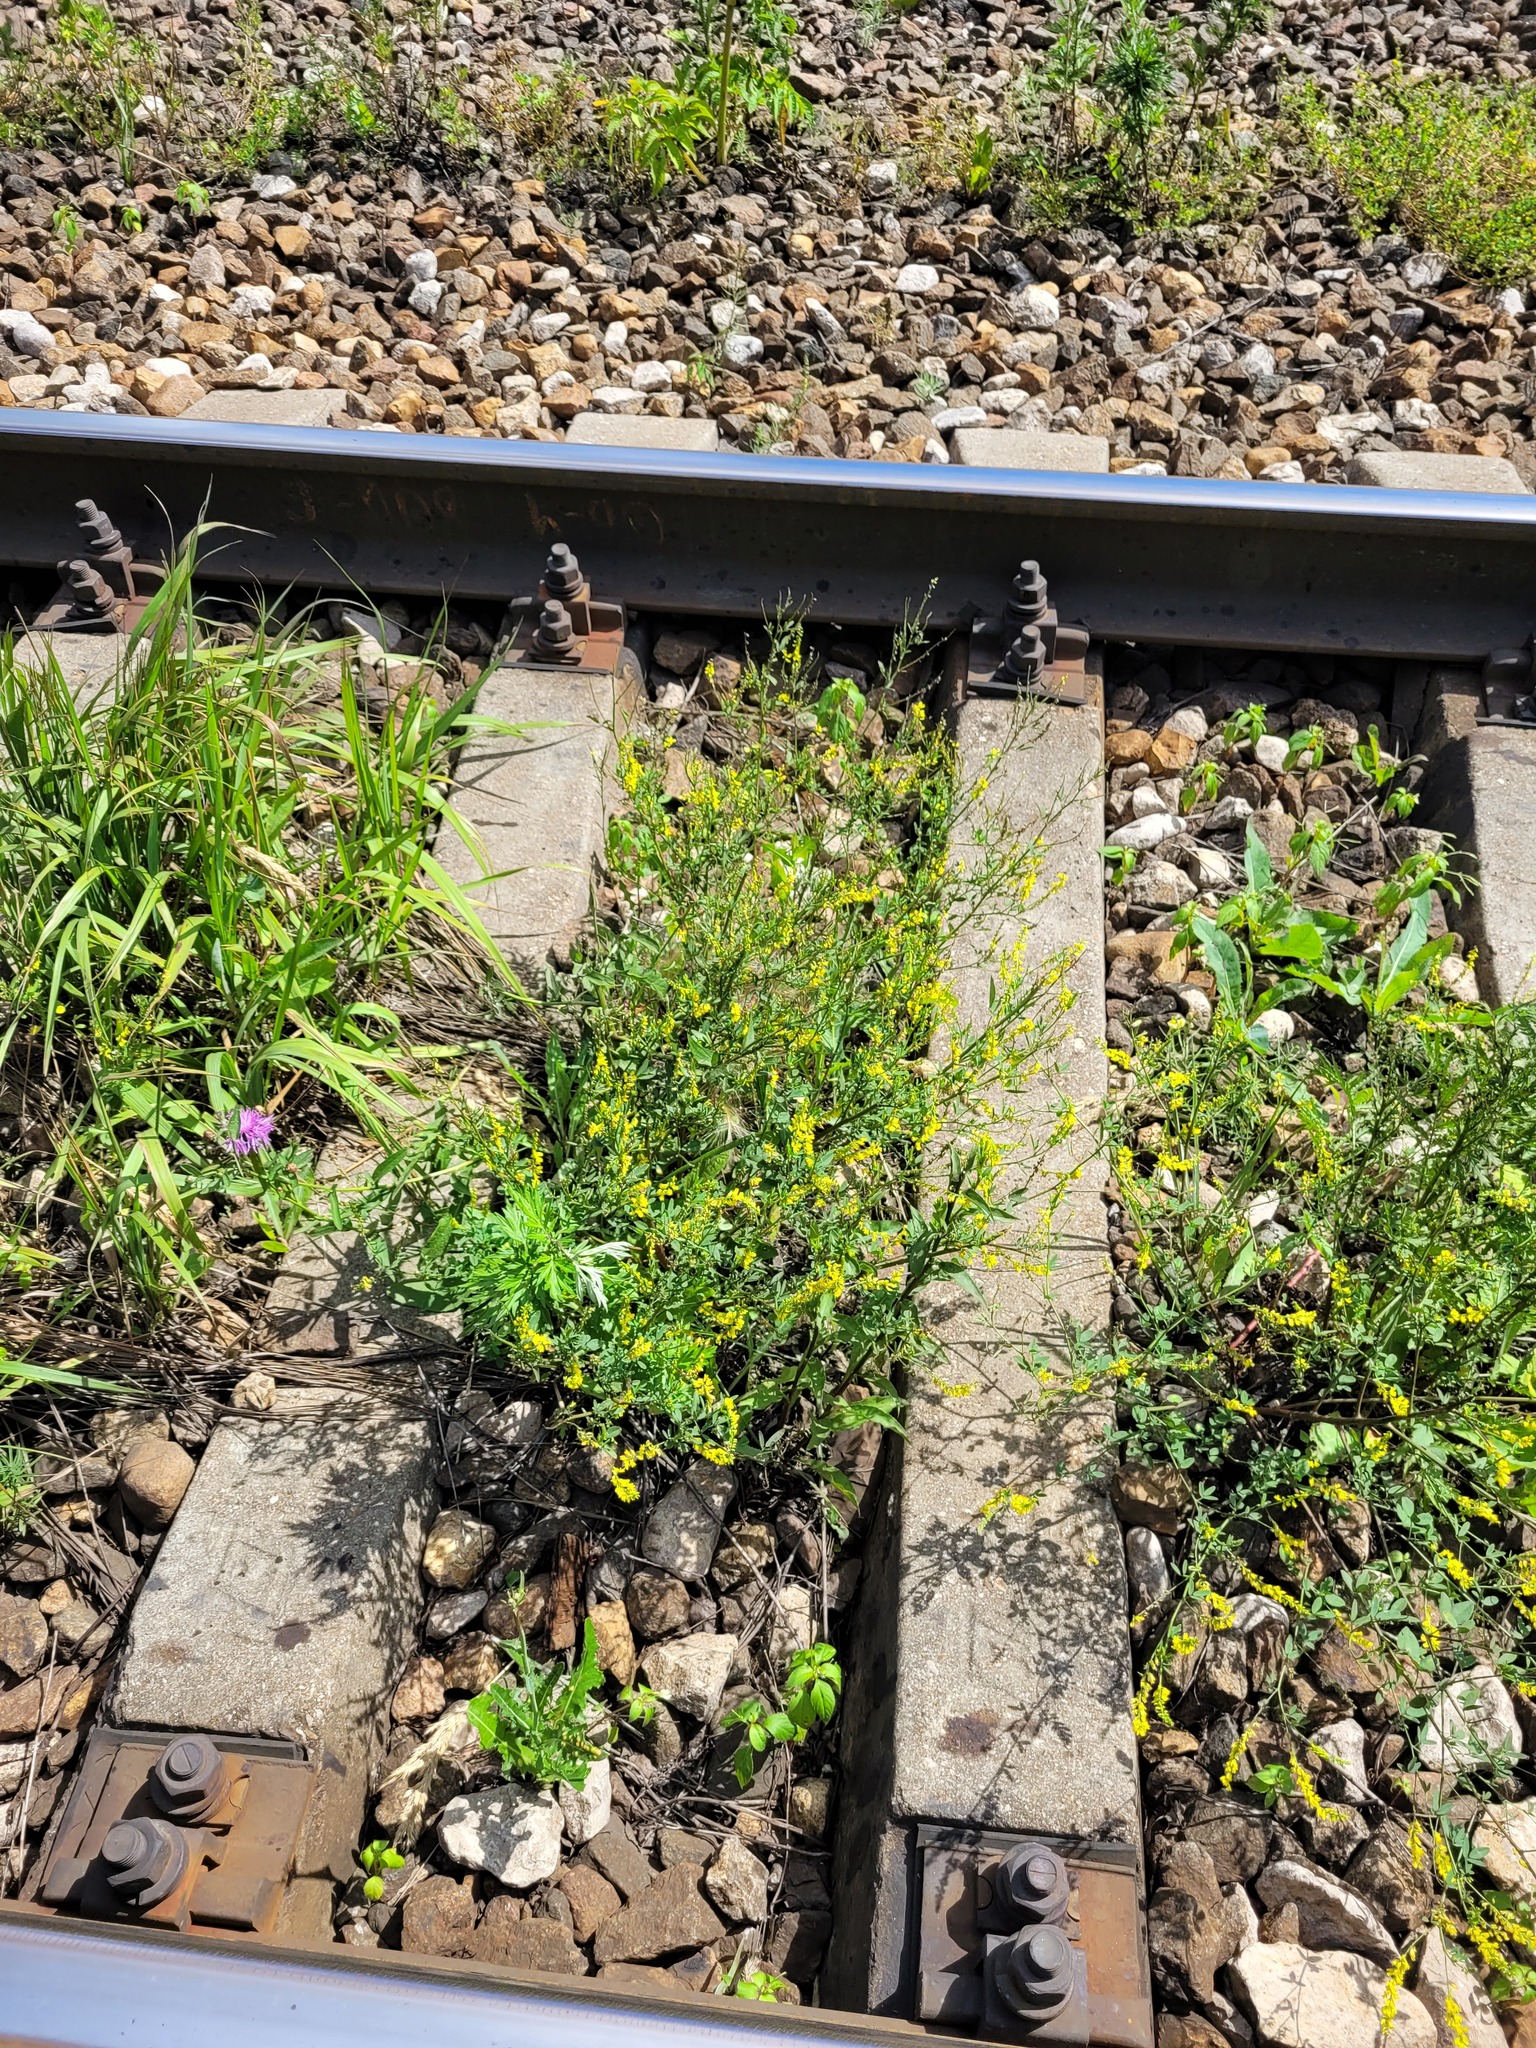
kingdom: Plantae
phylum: Tracheophyta
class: Magnoliopsida
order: Fabales
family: Fabaceae
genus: Melilotus
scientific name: Melilotus officinalis
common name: Sweetclover
